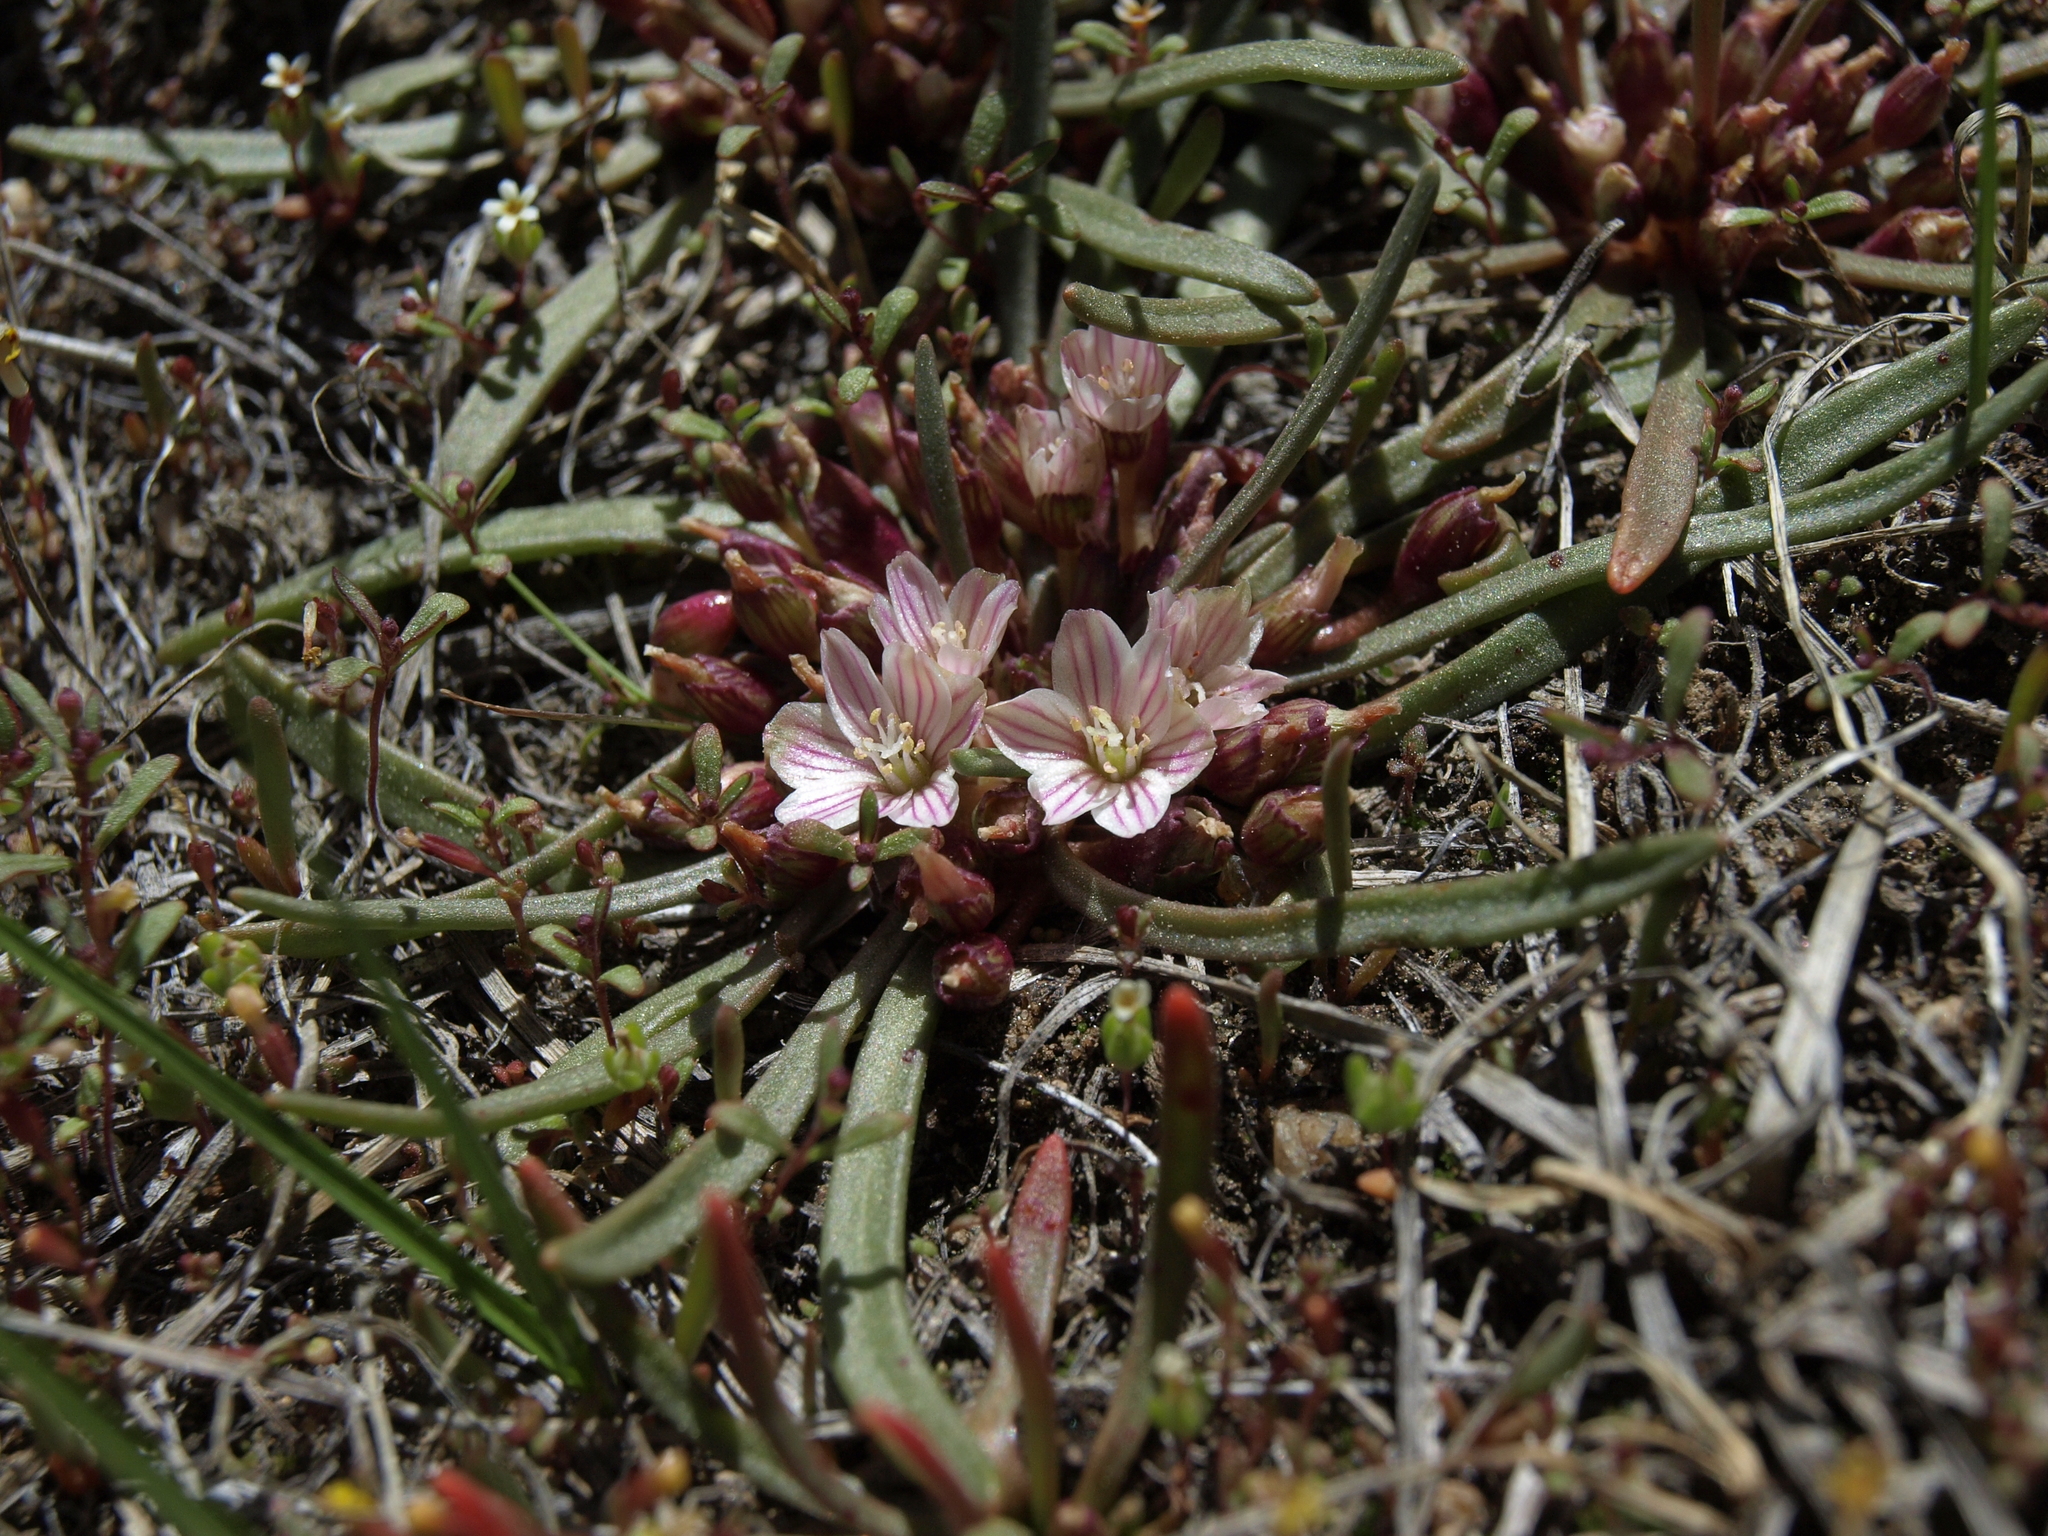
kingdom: Plantae
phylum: Tracheophyta
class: Magnoliopsida
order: Caryophyllales
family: Montiaceae
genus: Lewisia
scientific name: Lewisia pygmaea
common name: Alpine bitterroot
